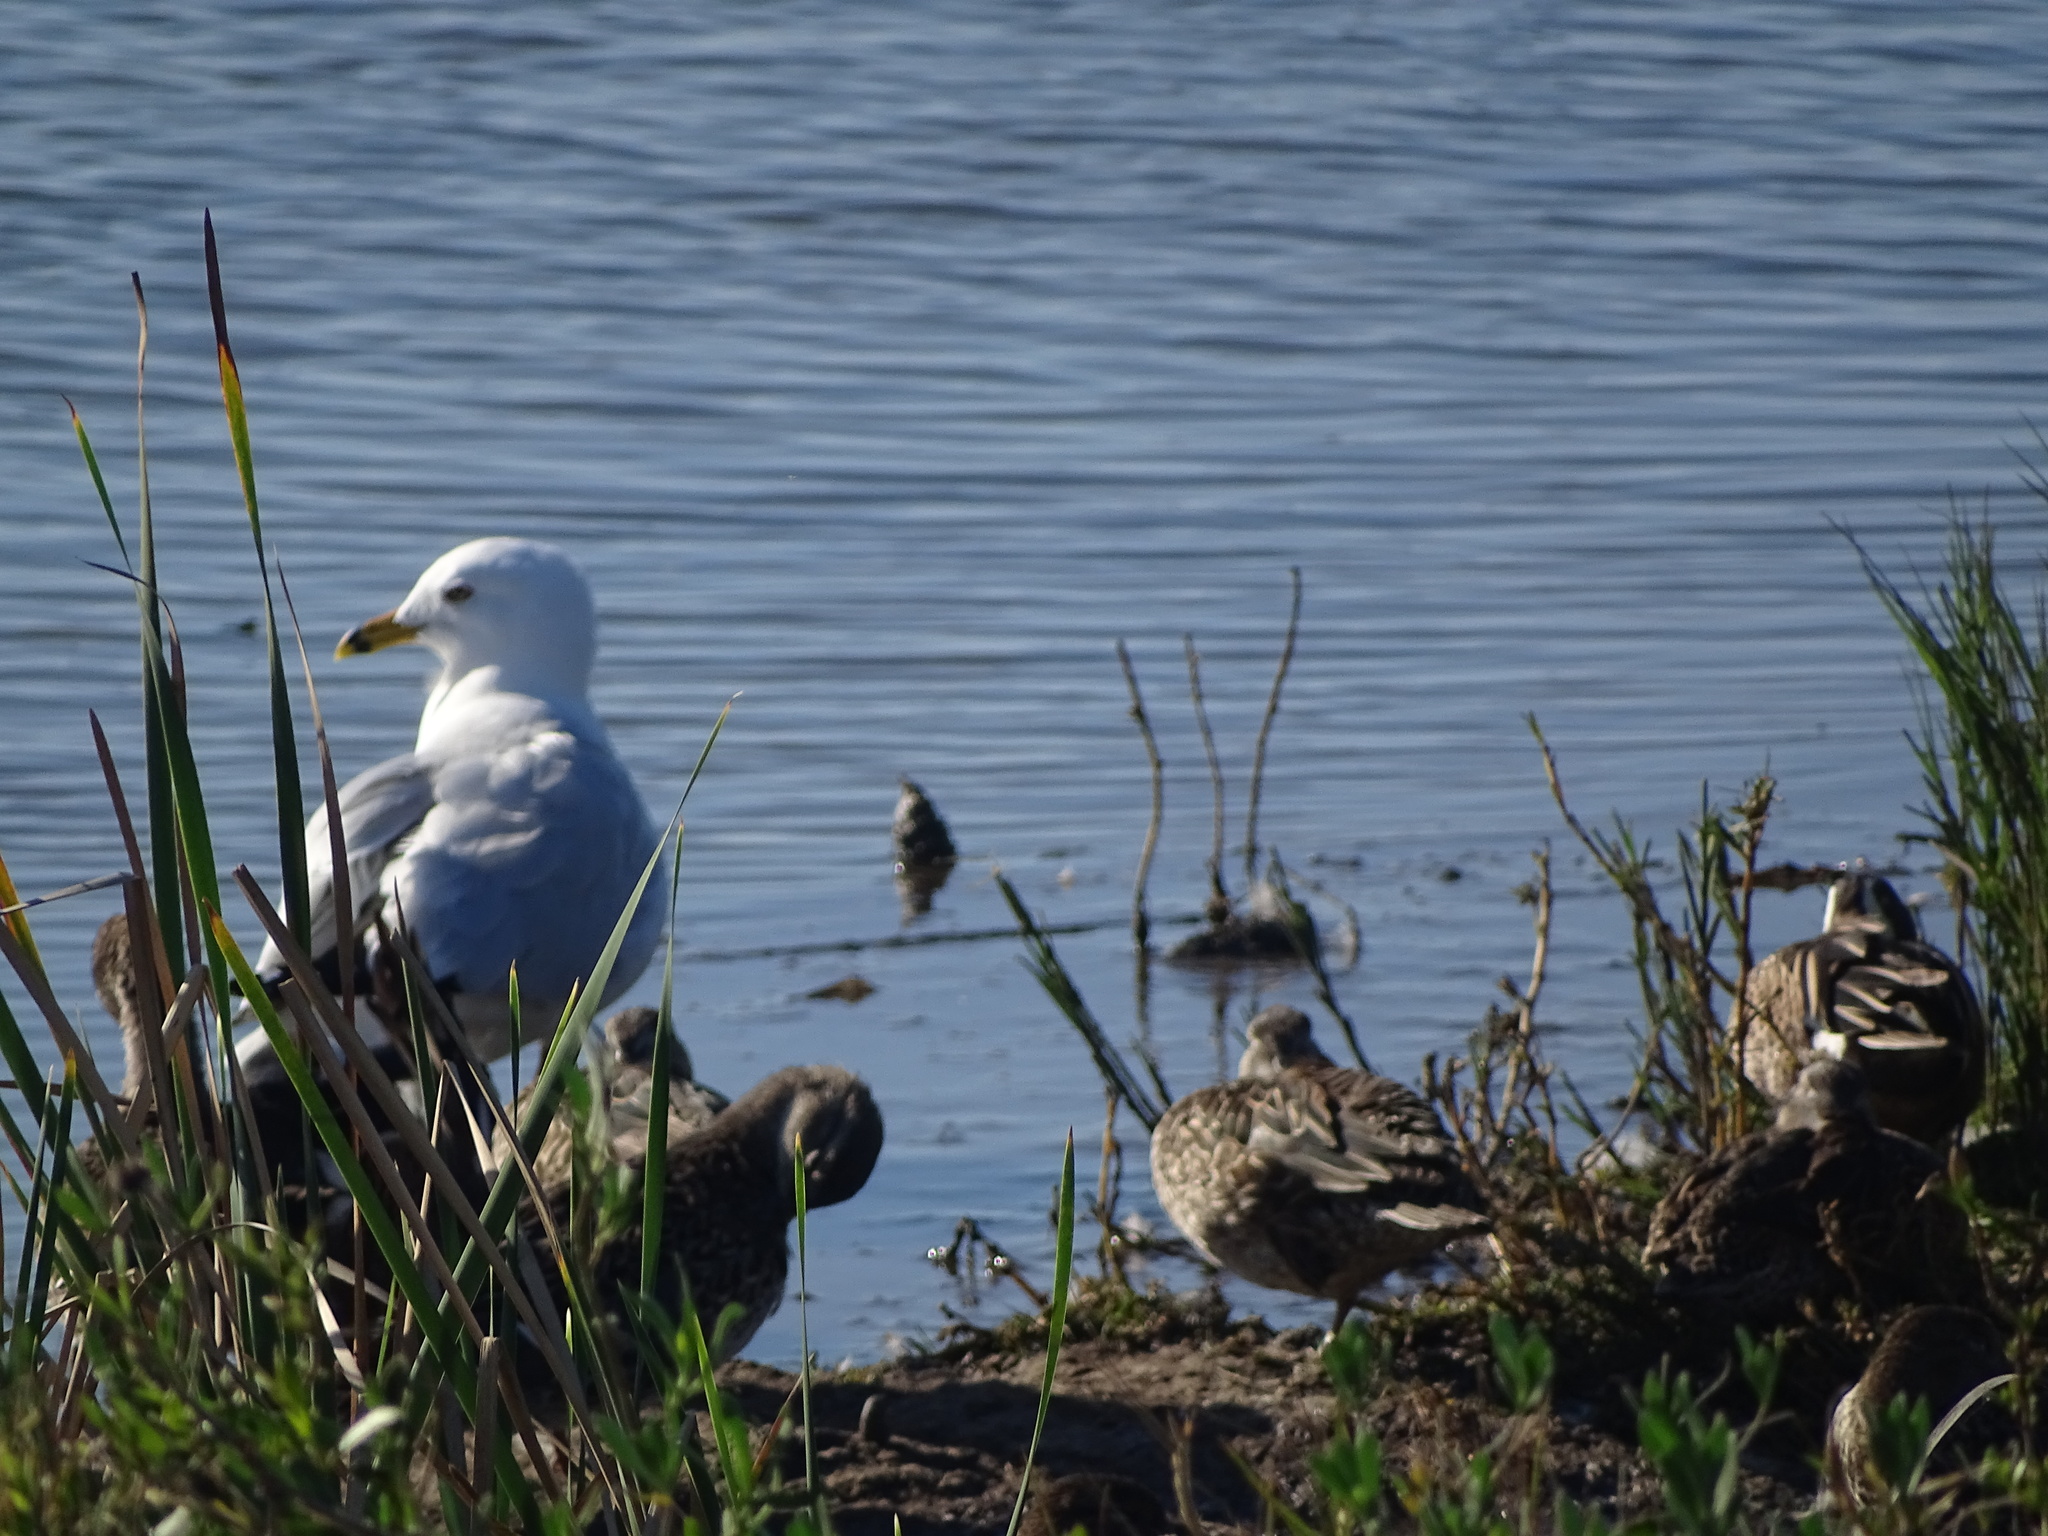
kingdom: Animalia
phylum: Chordata
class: Aves
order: Charadriiformes
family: Laridae
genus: Larus
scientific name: Larus delawarensis
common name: Ring-billed gull
